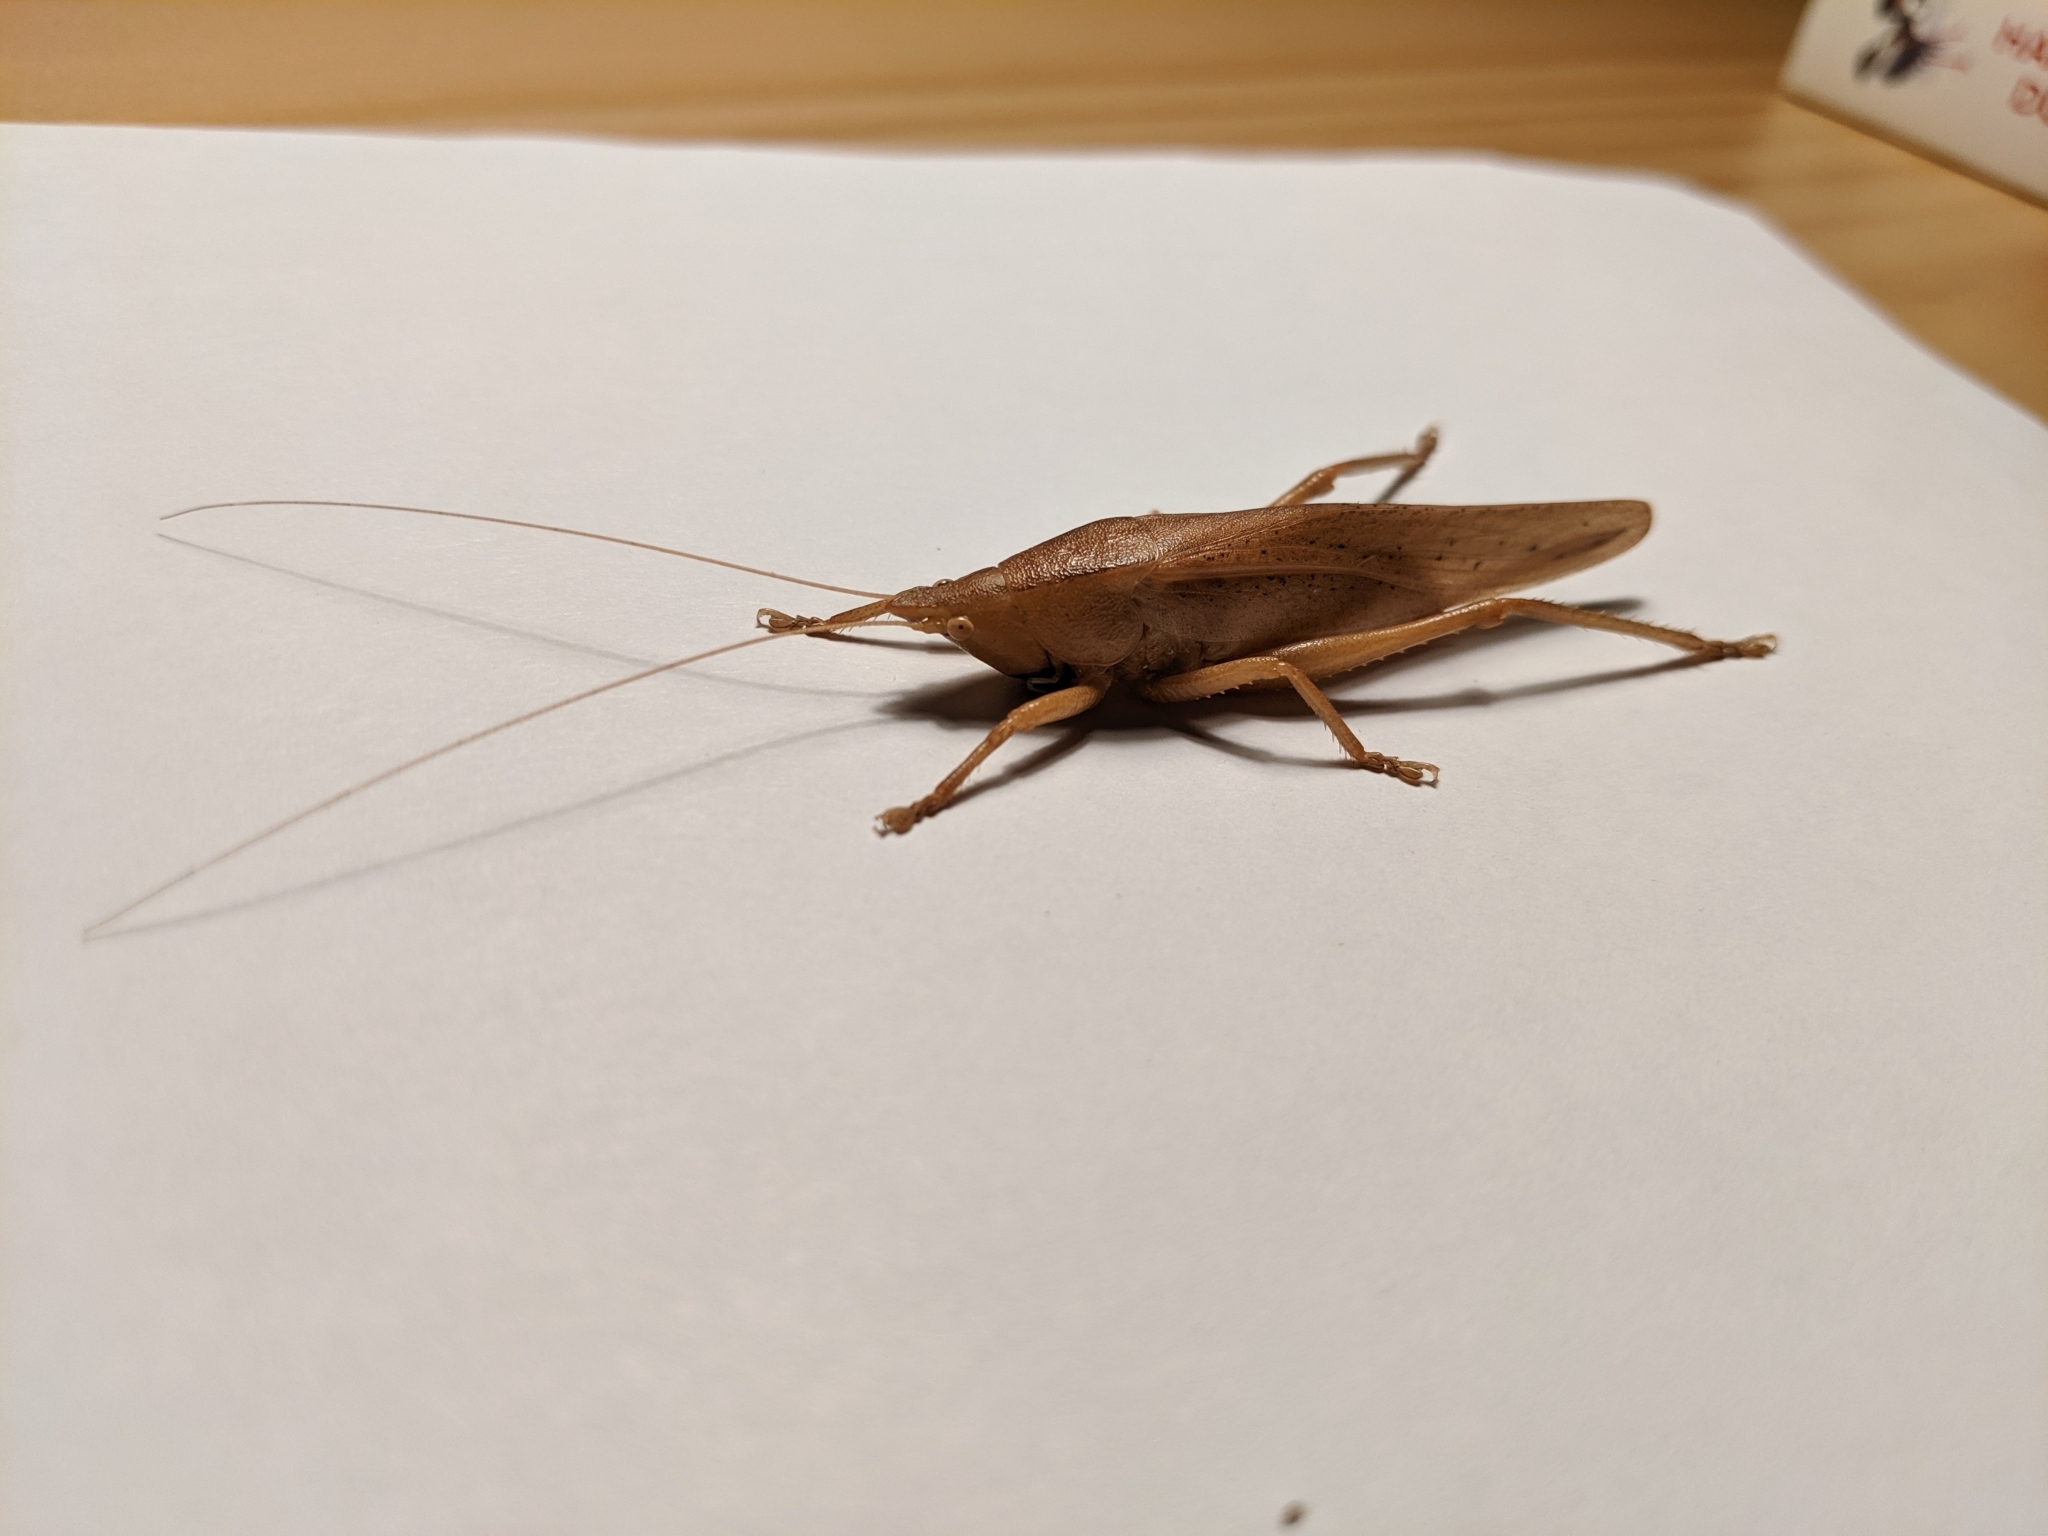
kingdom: Animalia
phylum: Arthropoda
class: Insecta
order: Orthoptera
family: Tettigoniidae
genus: Pyrgocorypha
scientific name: Pyrgocorypha uncinata
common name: Hook-faced conehead
